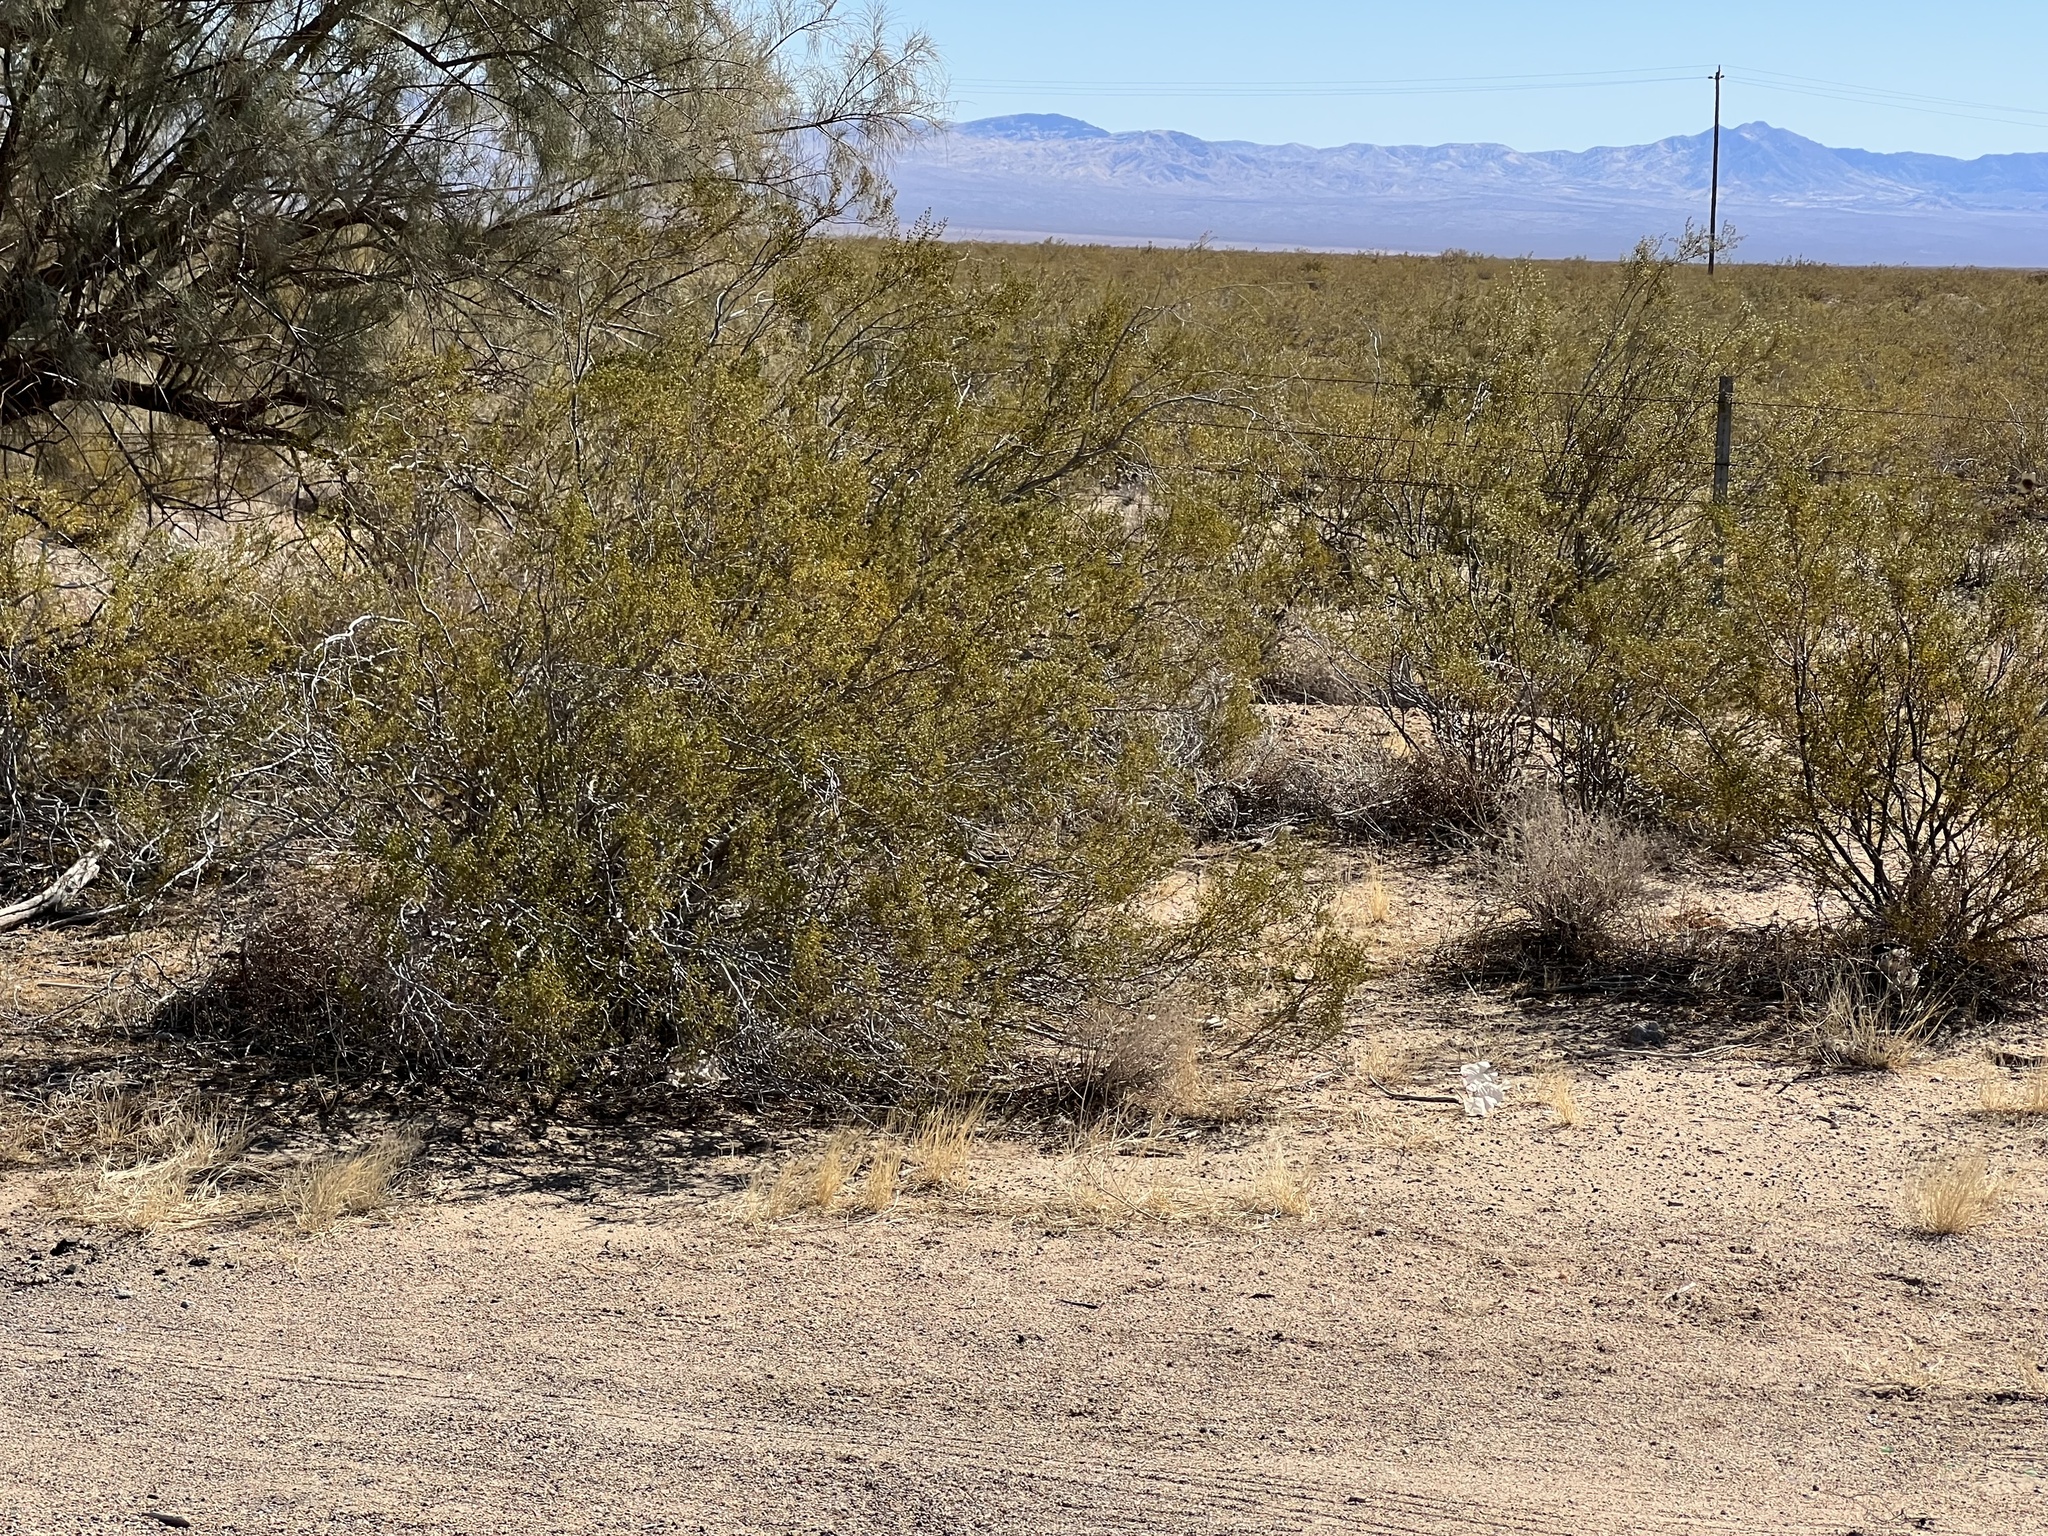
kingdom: Plantae
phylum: Tracheophyta
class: Magnoliopsida
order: Zygophyllales
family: Zygophyllaceae
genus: Larrea
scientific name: Larrea tridentata
